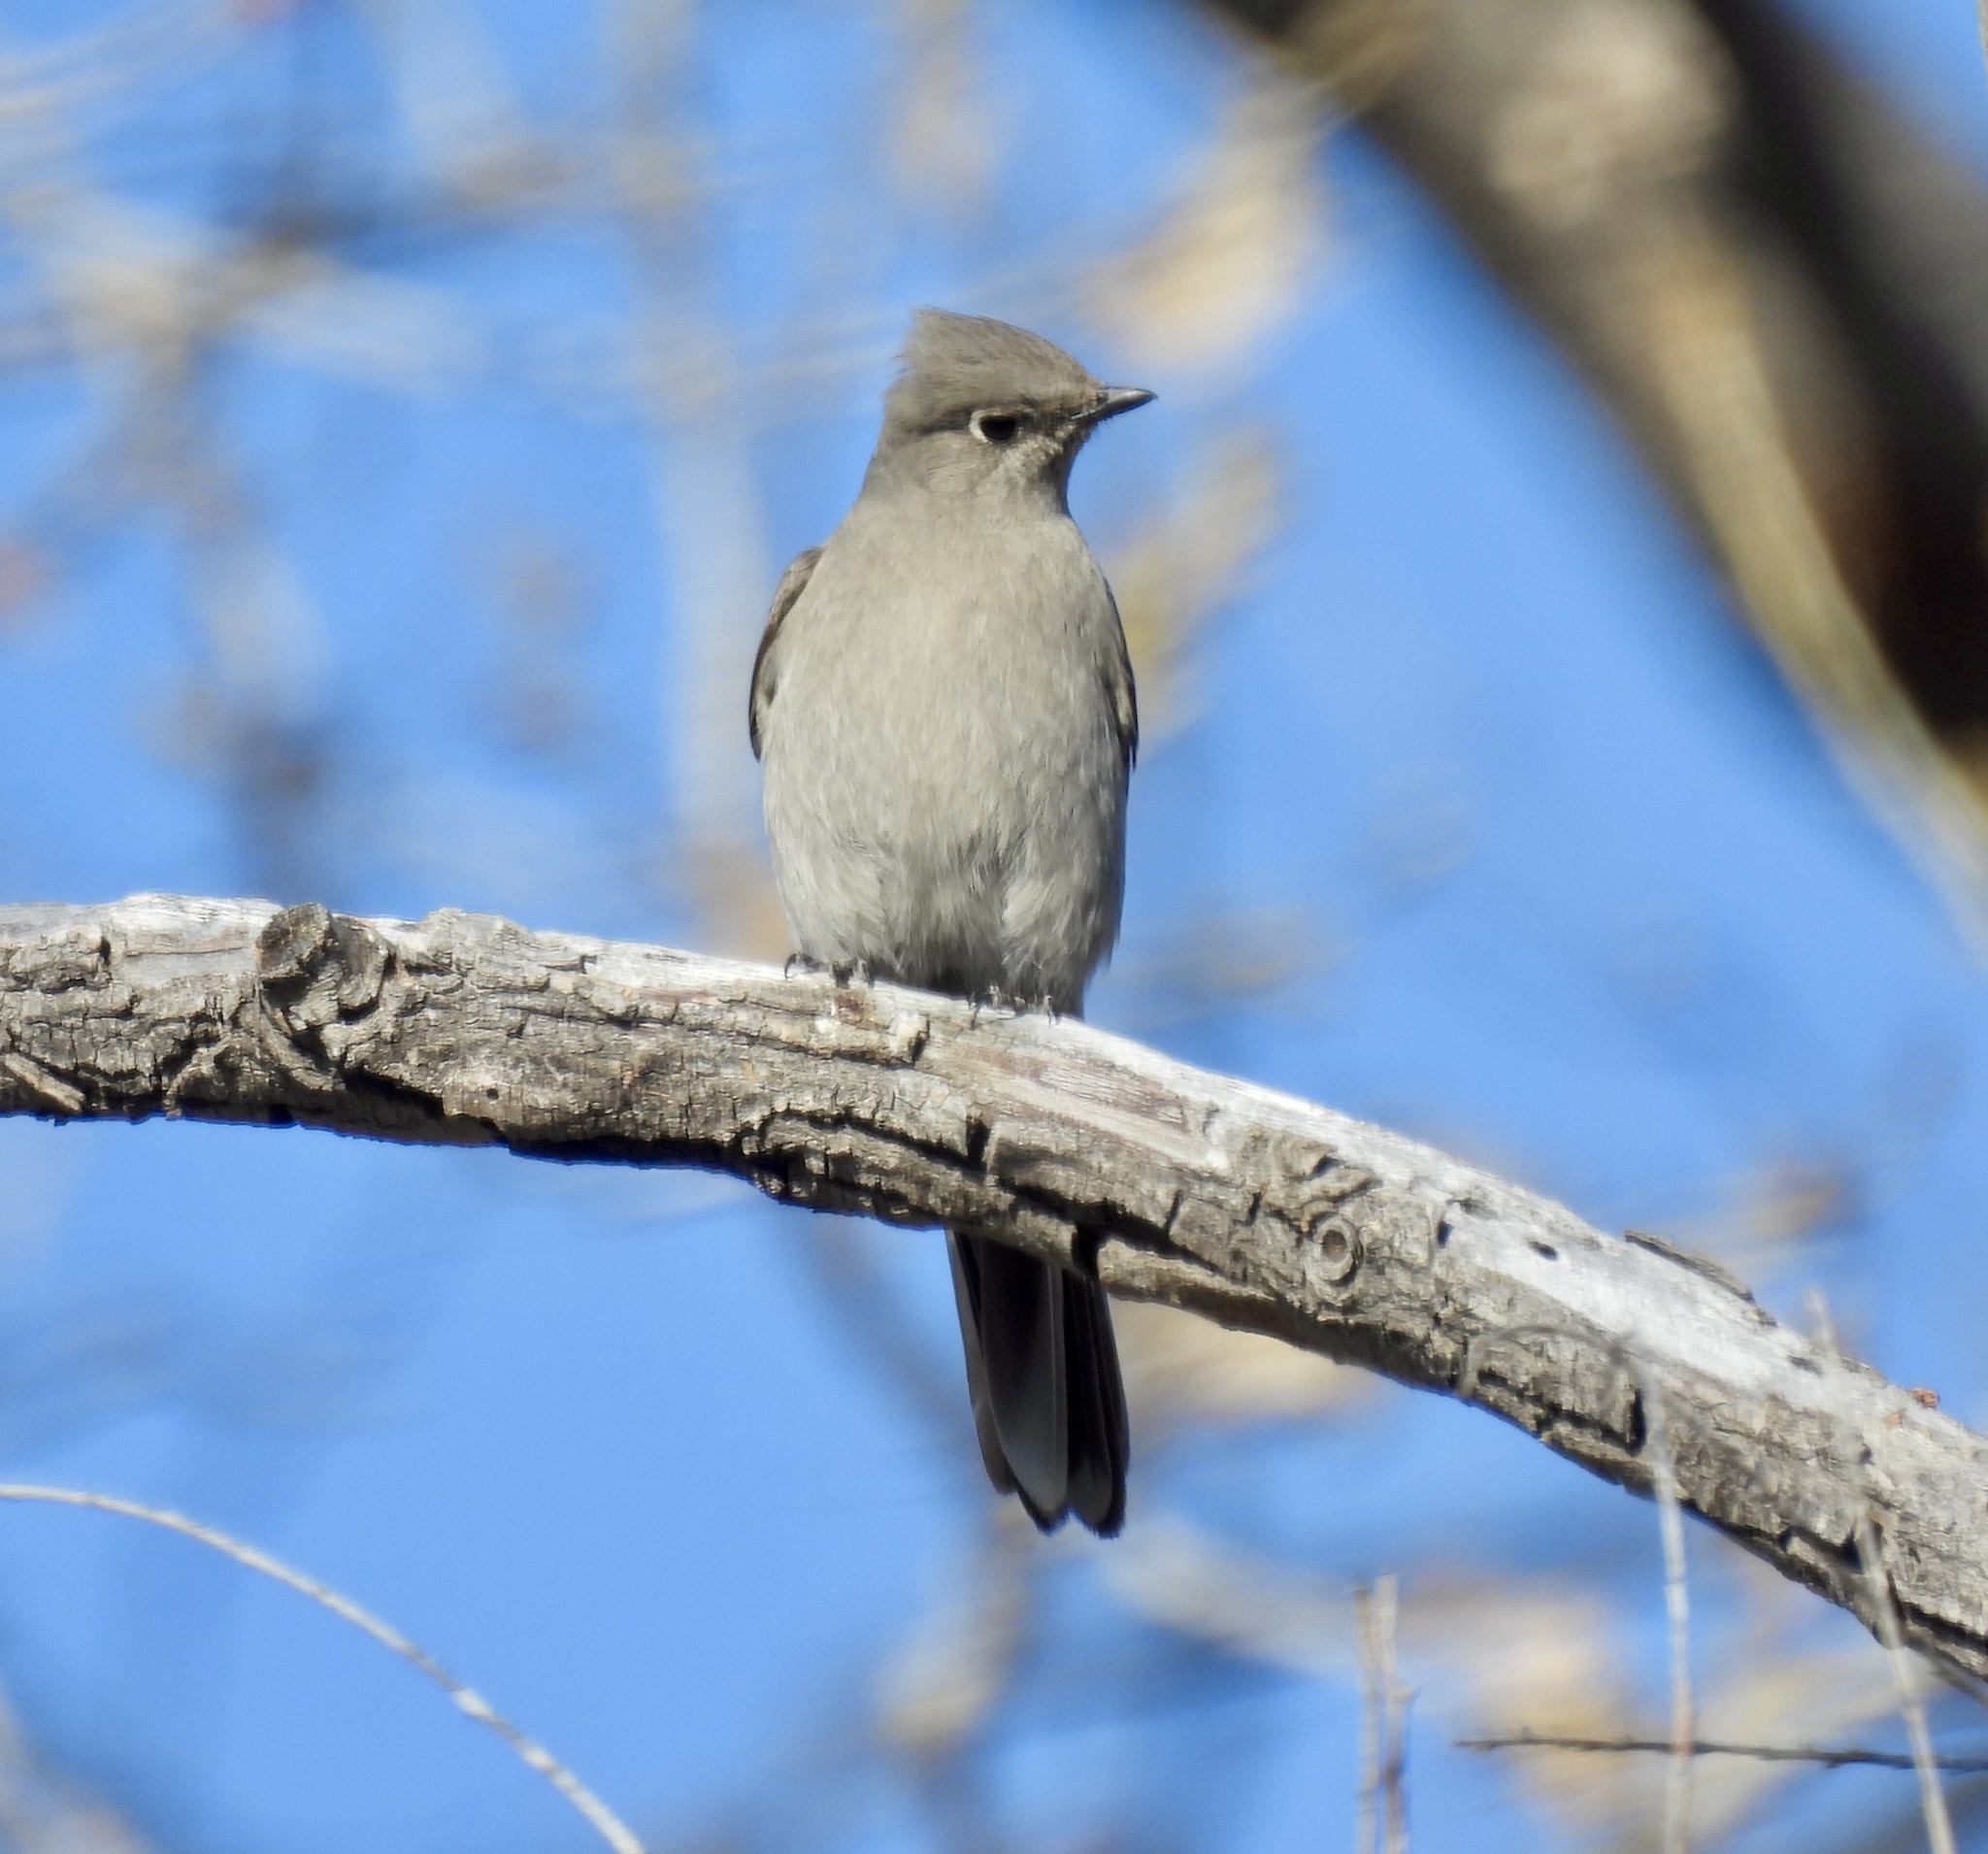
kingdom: Animalia
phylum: Chordata
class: Aves
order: Passeriformes
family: Turdidae
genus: Myadestes
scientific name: Myadestes townsendi
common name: Townsend's solitaire
